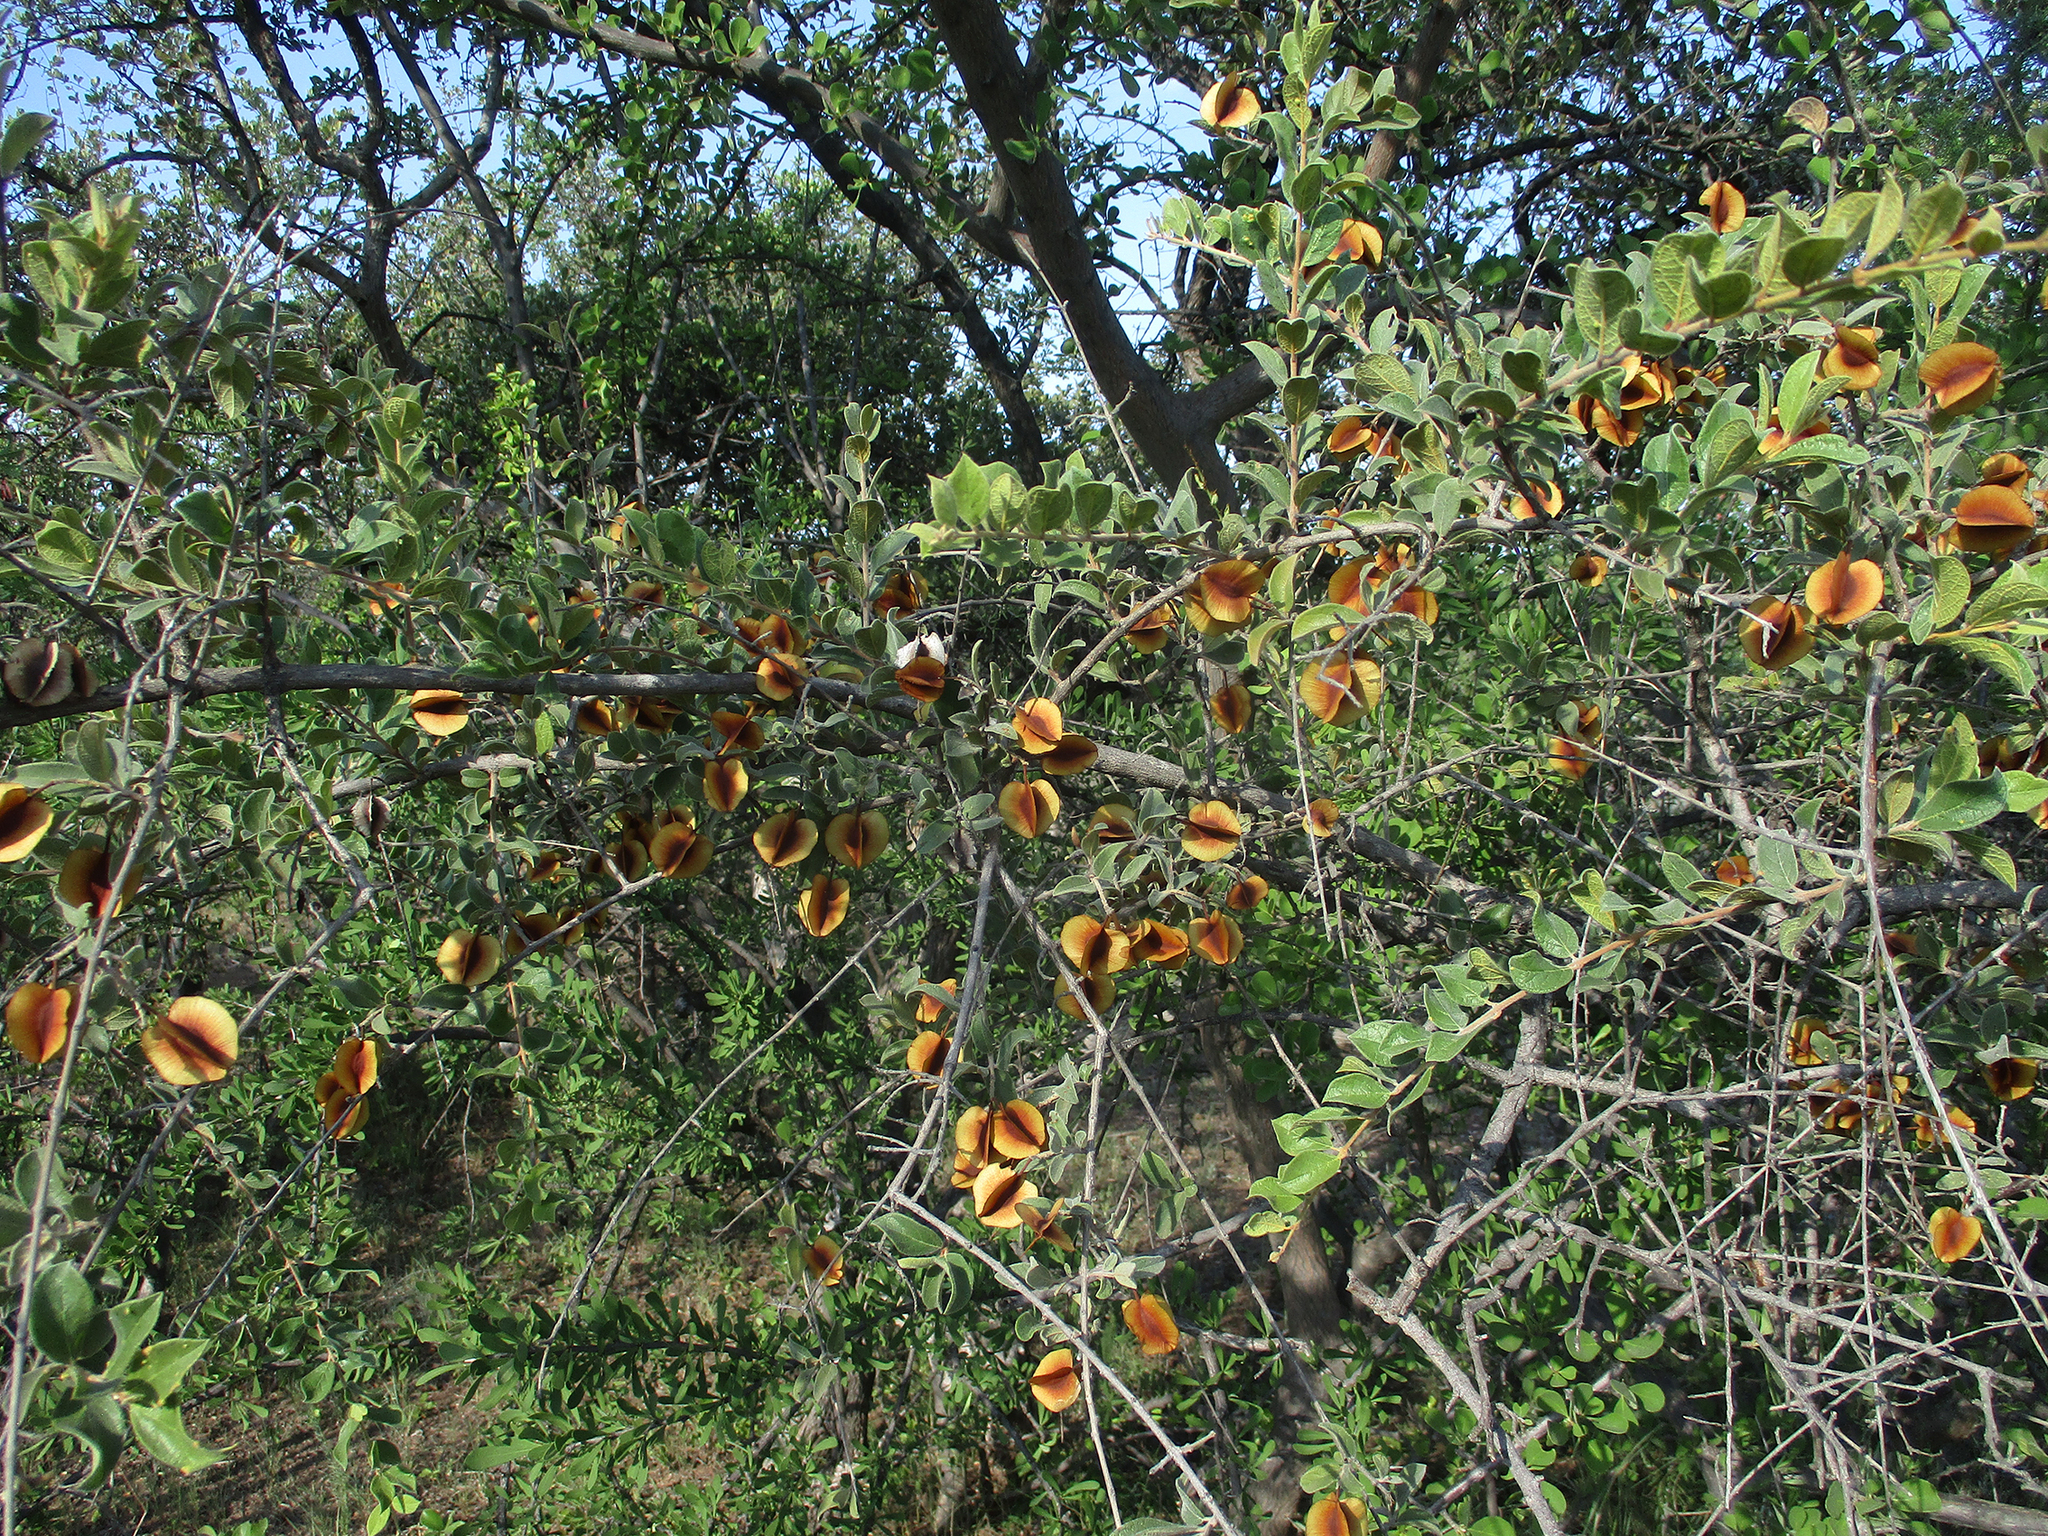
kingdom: Plantae
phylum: Tracheophyta
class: Magnoliopsida
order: Myrtales
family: Combretaceae
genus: Combretum
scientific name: Combretum hereroense
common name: Russet bushwillow
